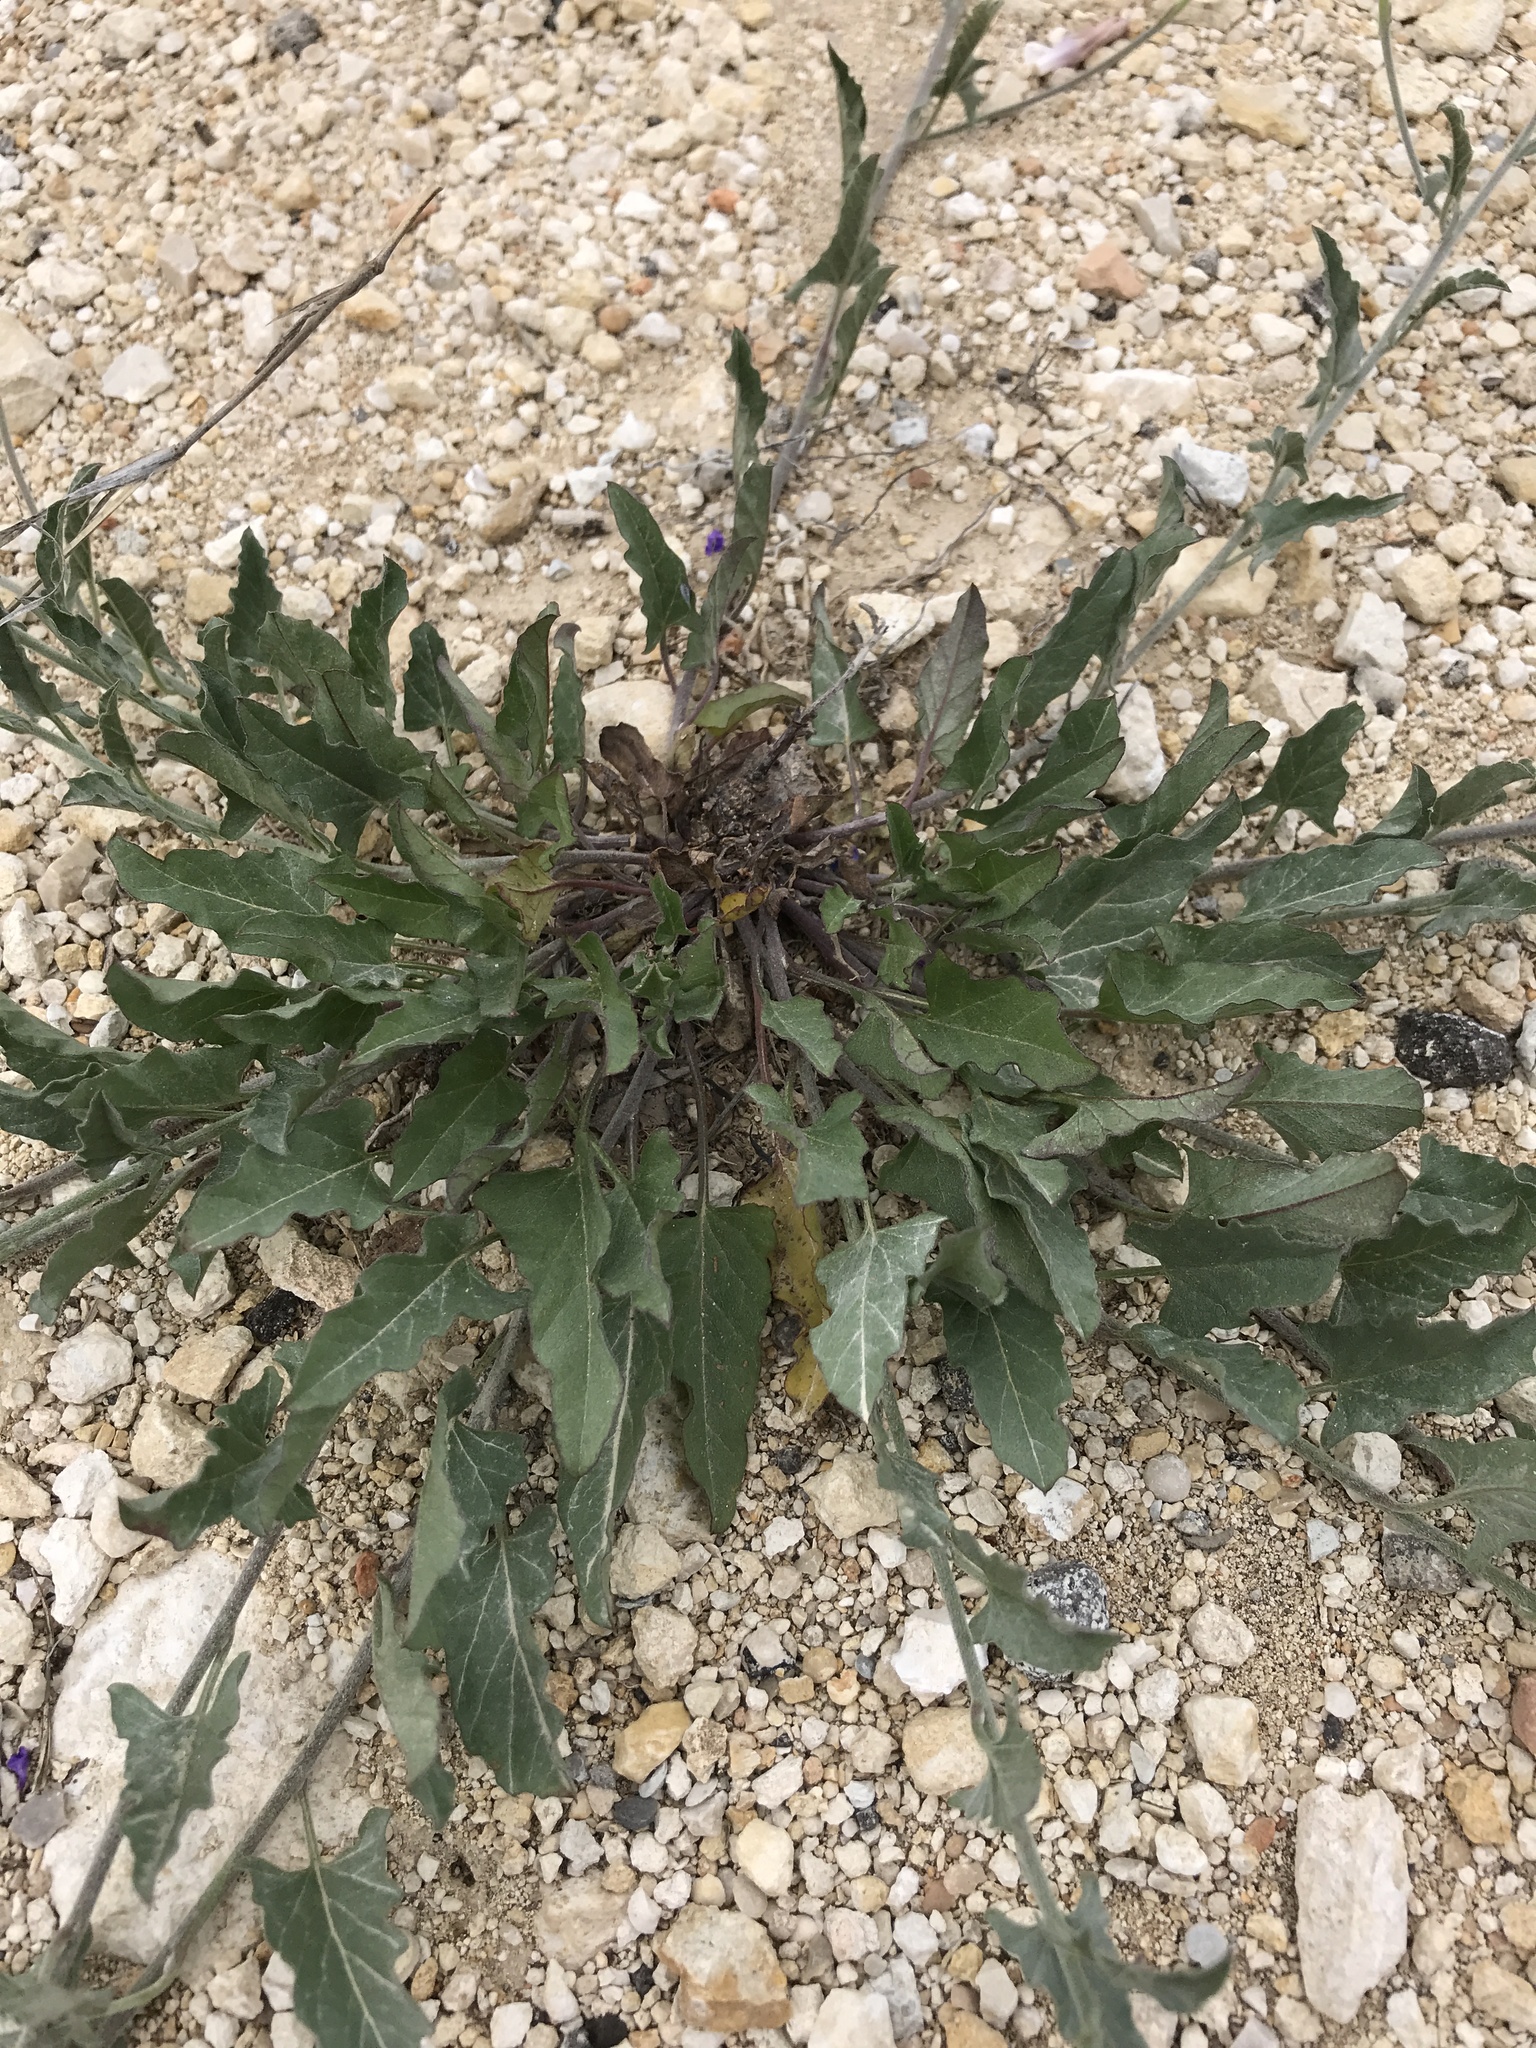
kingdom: Plantae
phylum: Tracheophyta
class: Magnoliopsida
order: Solanales
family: Convolvulaceae
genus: Convolvulus
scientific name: Convolvulus equitans
